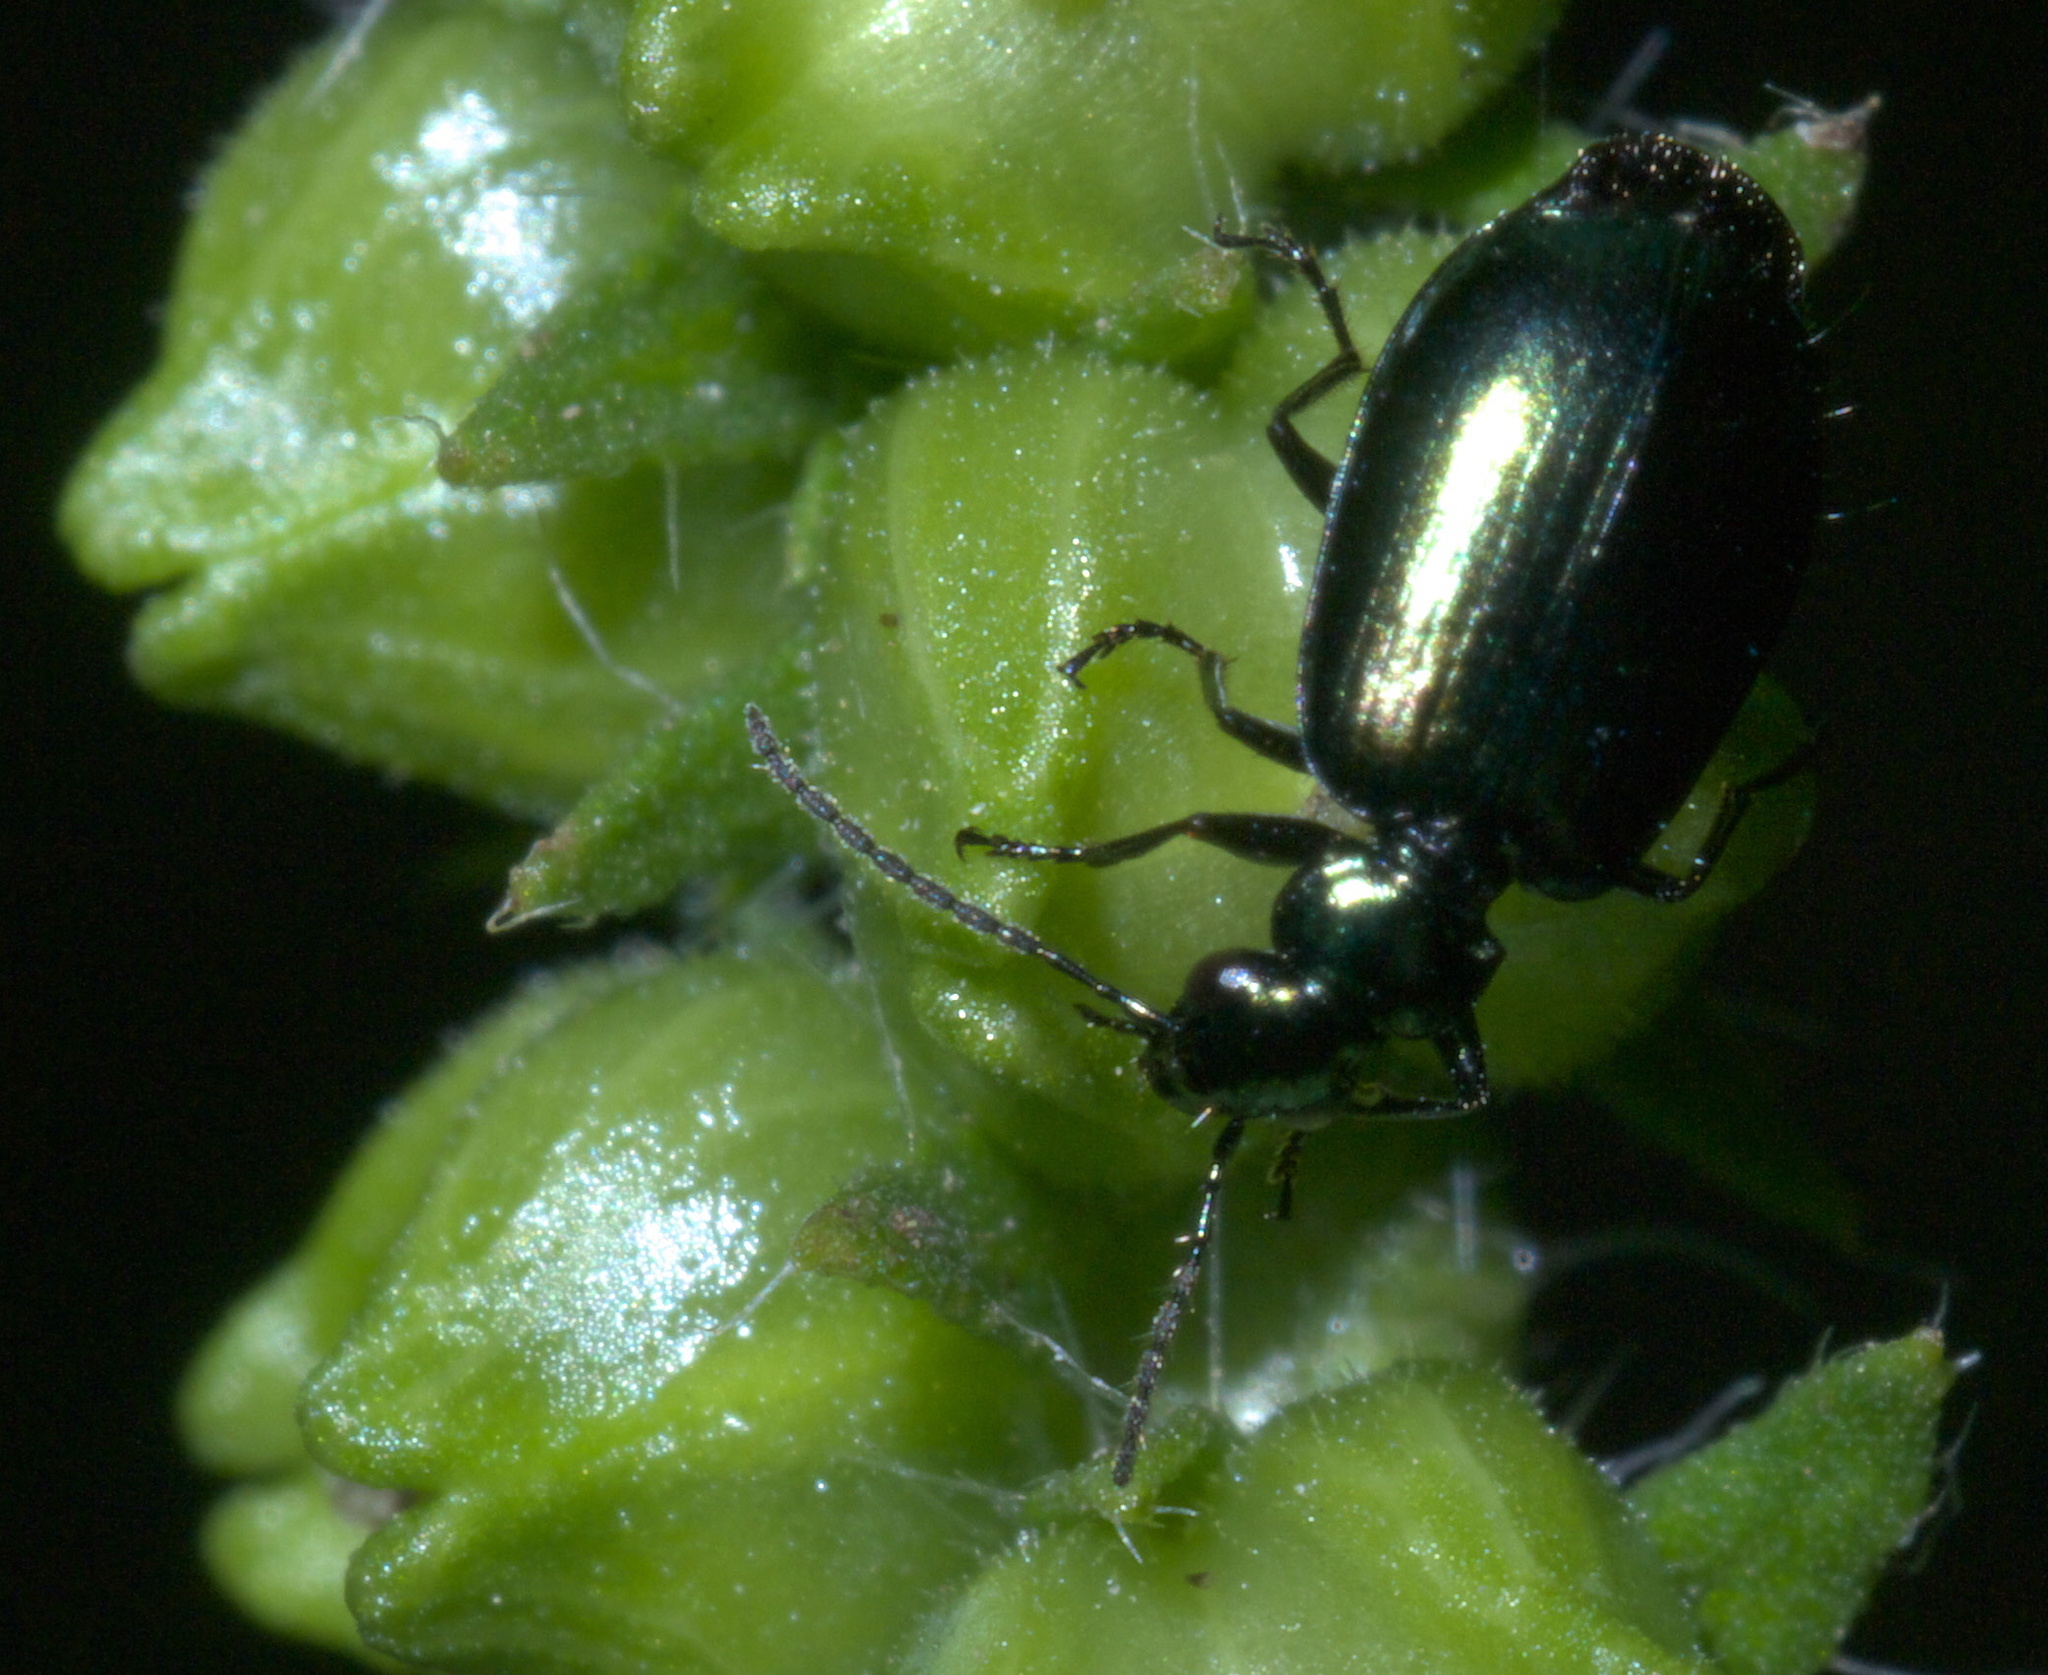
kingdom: Animalia
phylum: Arthropoda
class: Insecta
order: Coleoptera
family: Carabidae
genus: Lebia
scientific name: Lebia viridis
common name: Flower lebia beetle
